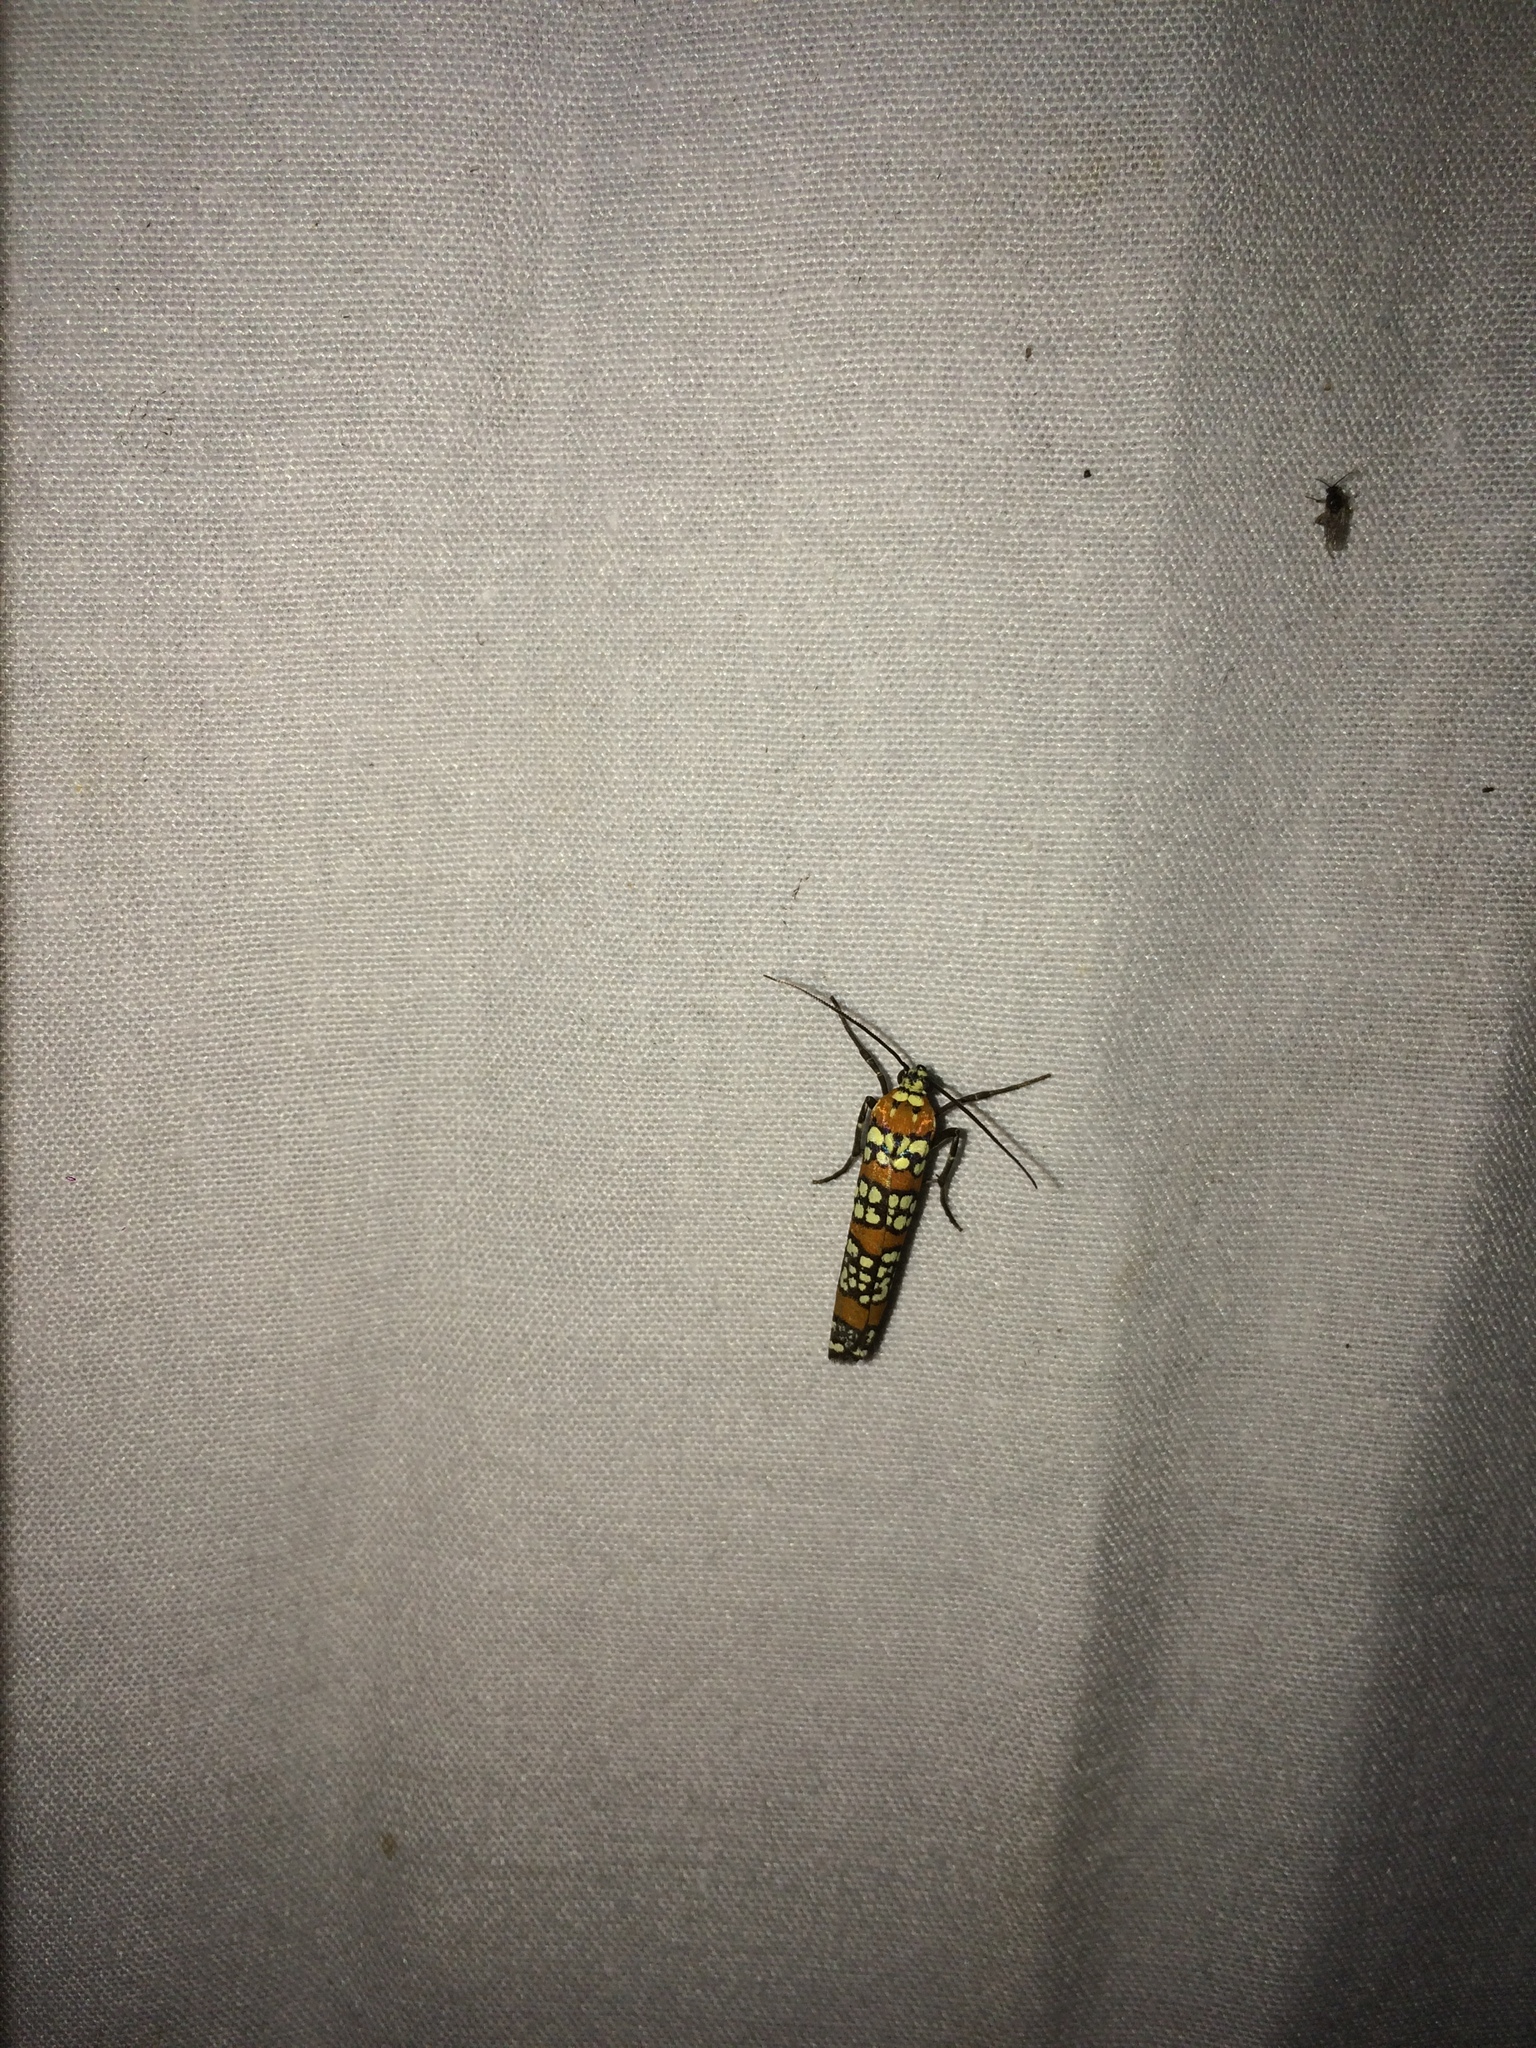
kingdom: Animalia
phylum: Arthropoda
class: Insecta
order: Lepidoptera
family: Attevidae
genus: Atteva
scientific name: Atteva punctella
